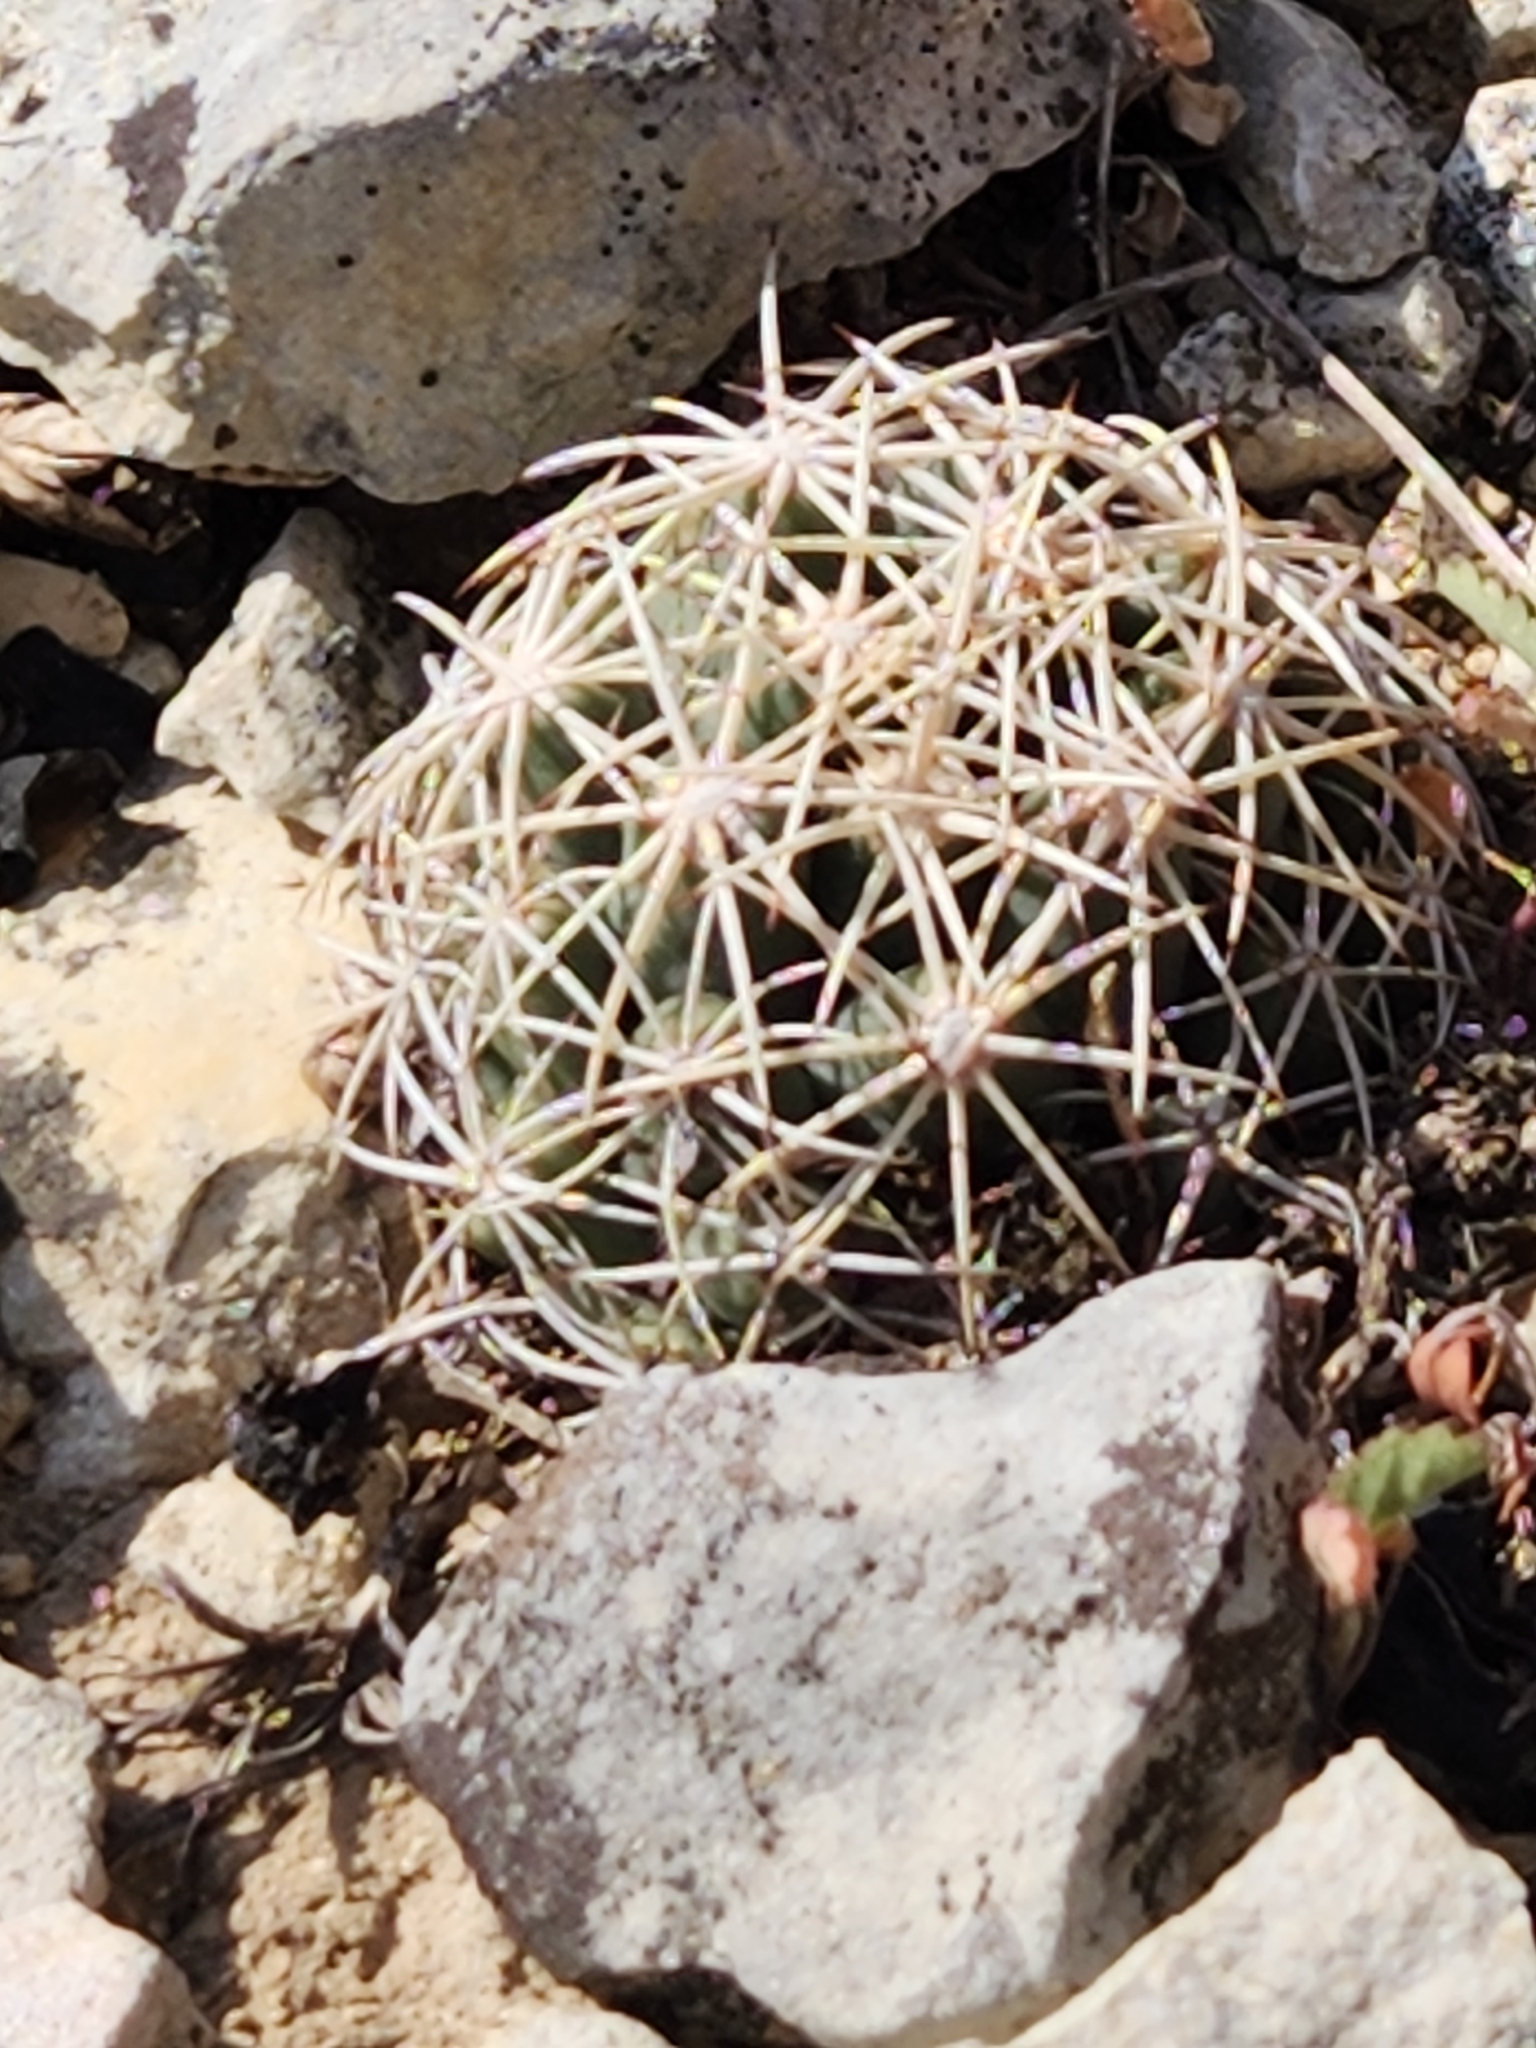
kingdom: Plantae
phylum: Tracheophyta
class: Magnoliopsida
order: Caryophyllales
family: Cactaceae
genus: Coryphantha
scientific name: Coryphantha sulcata
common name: Finger cactus
